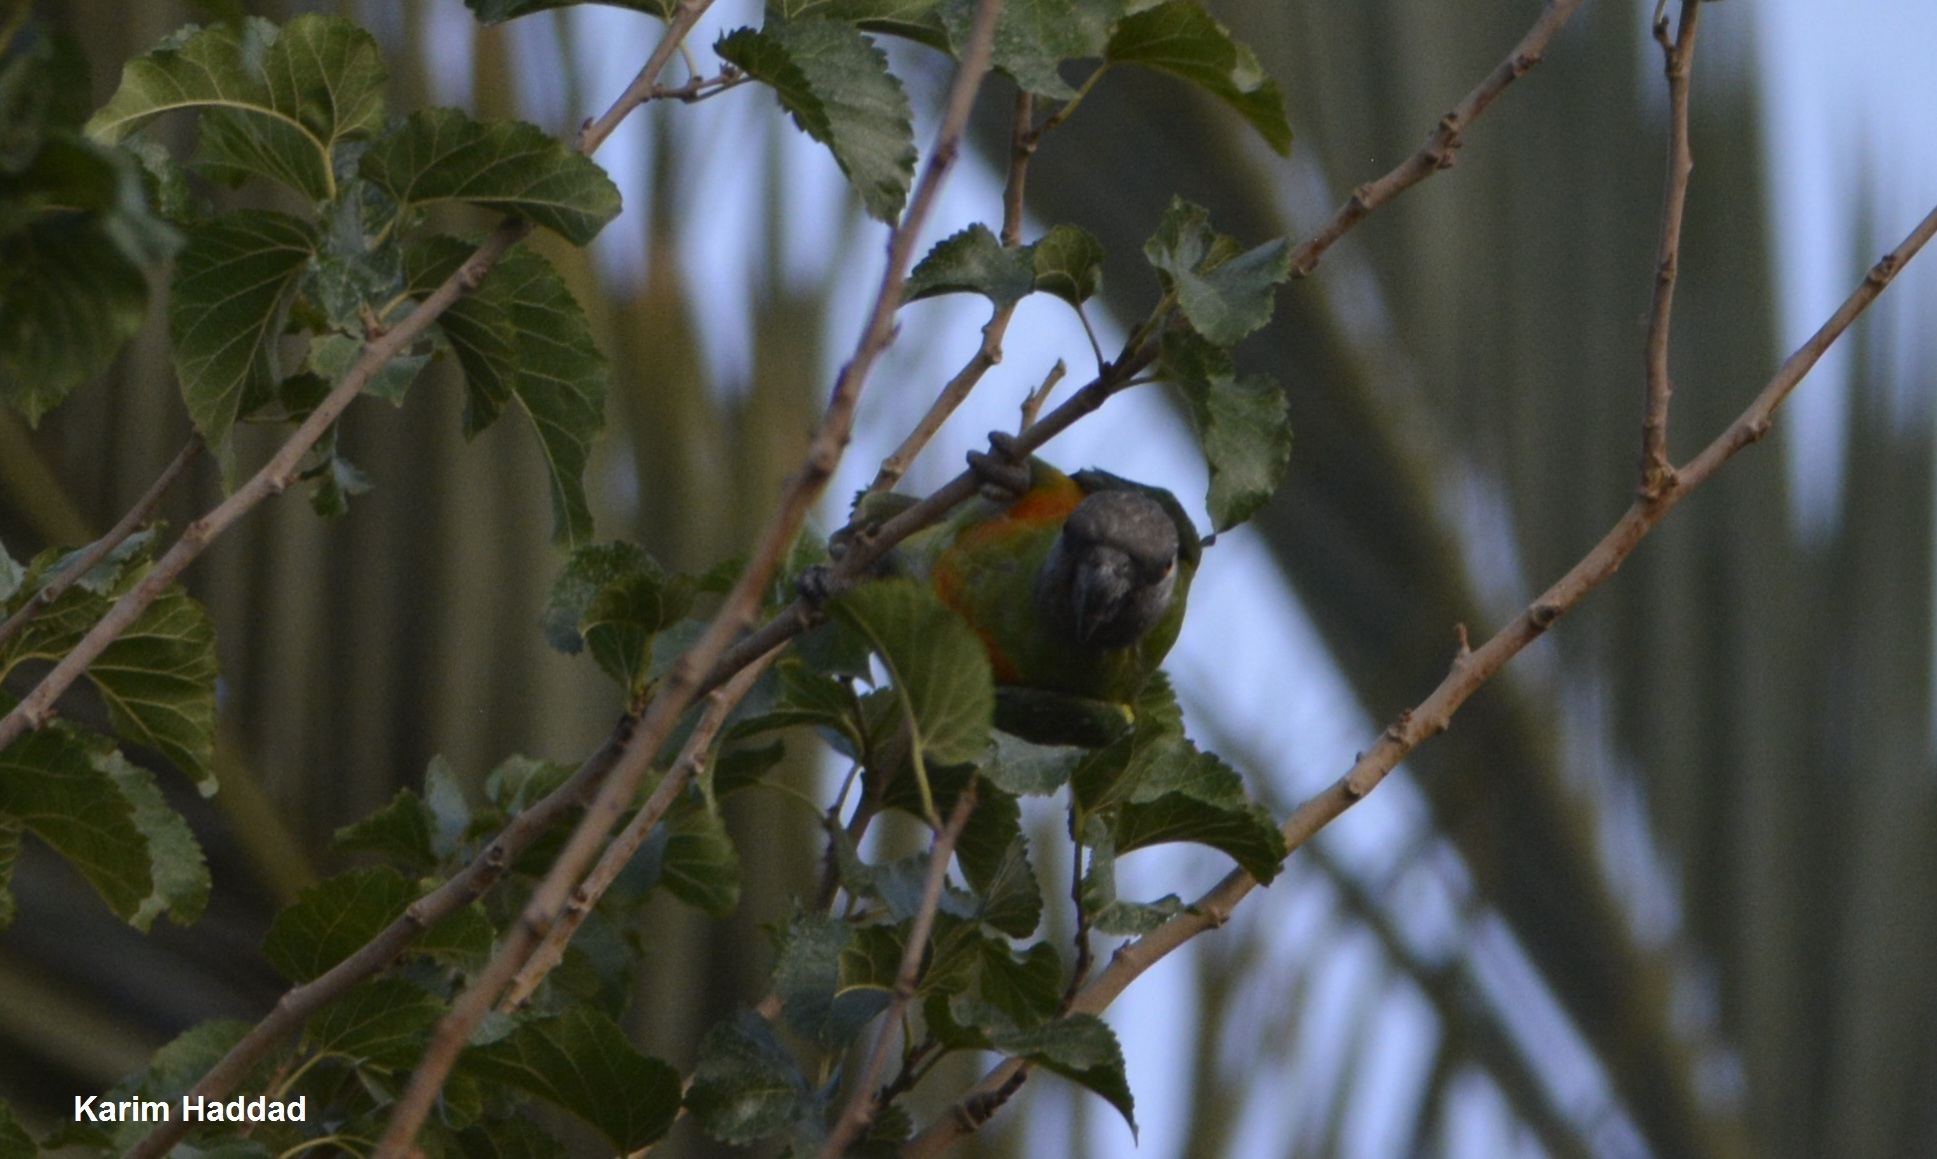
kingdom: Animalia
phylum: Chordata
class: Aves
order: Psittaciformes
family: Psittacidae
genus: Poicephalus
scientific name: Poicephalus senegalus
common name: Senegal parrot
